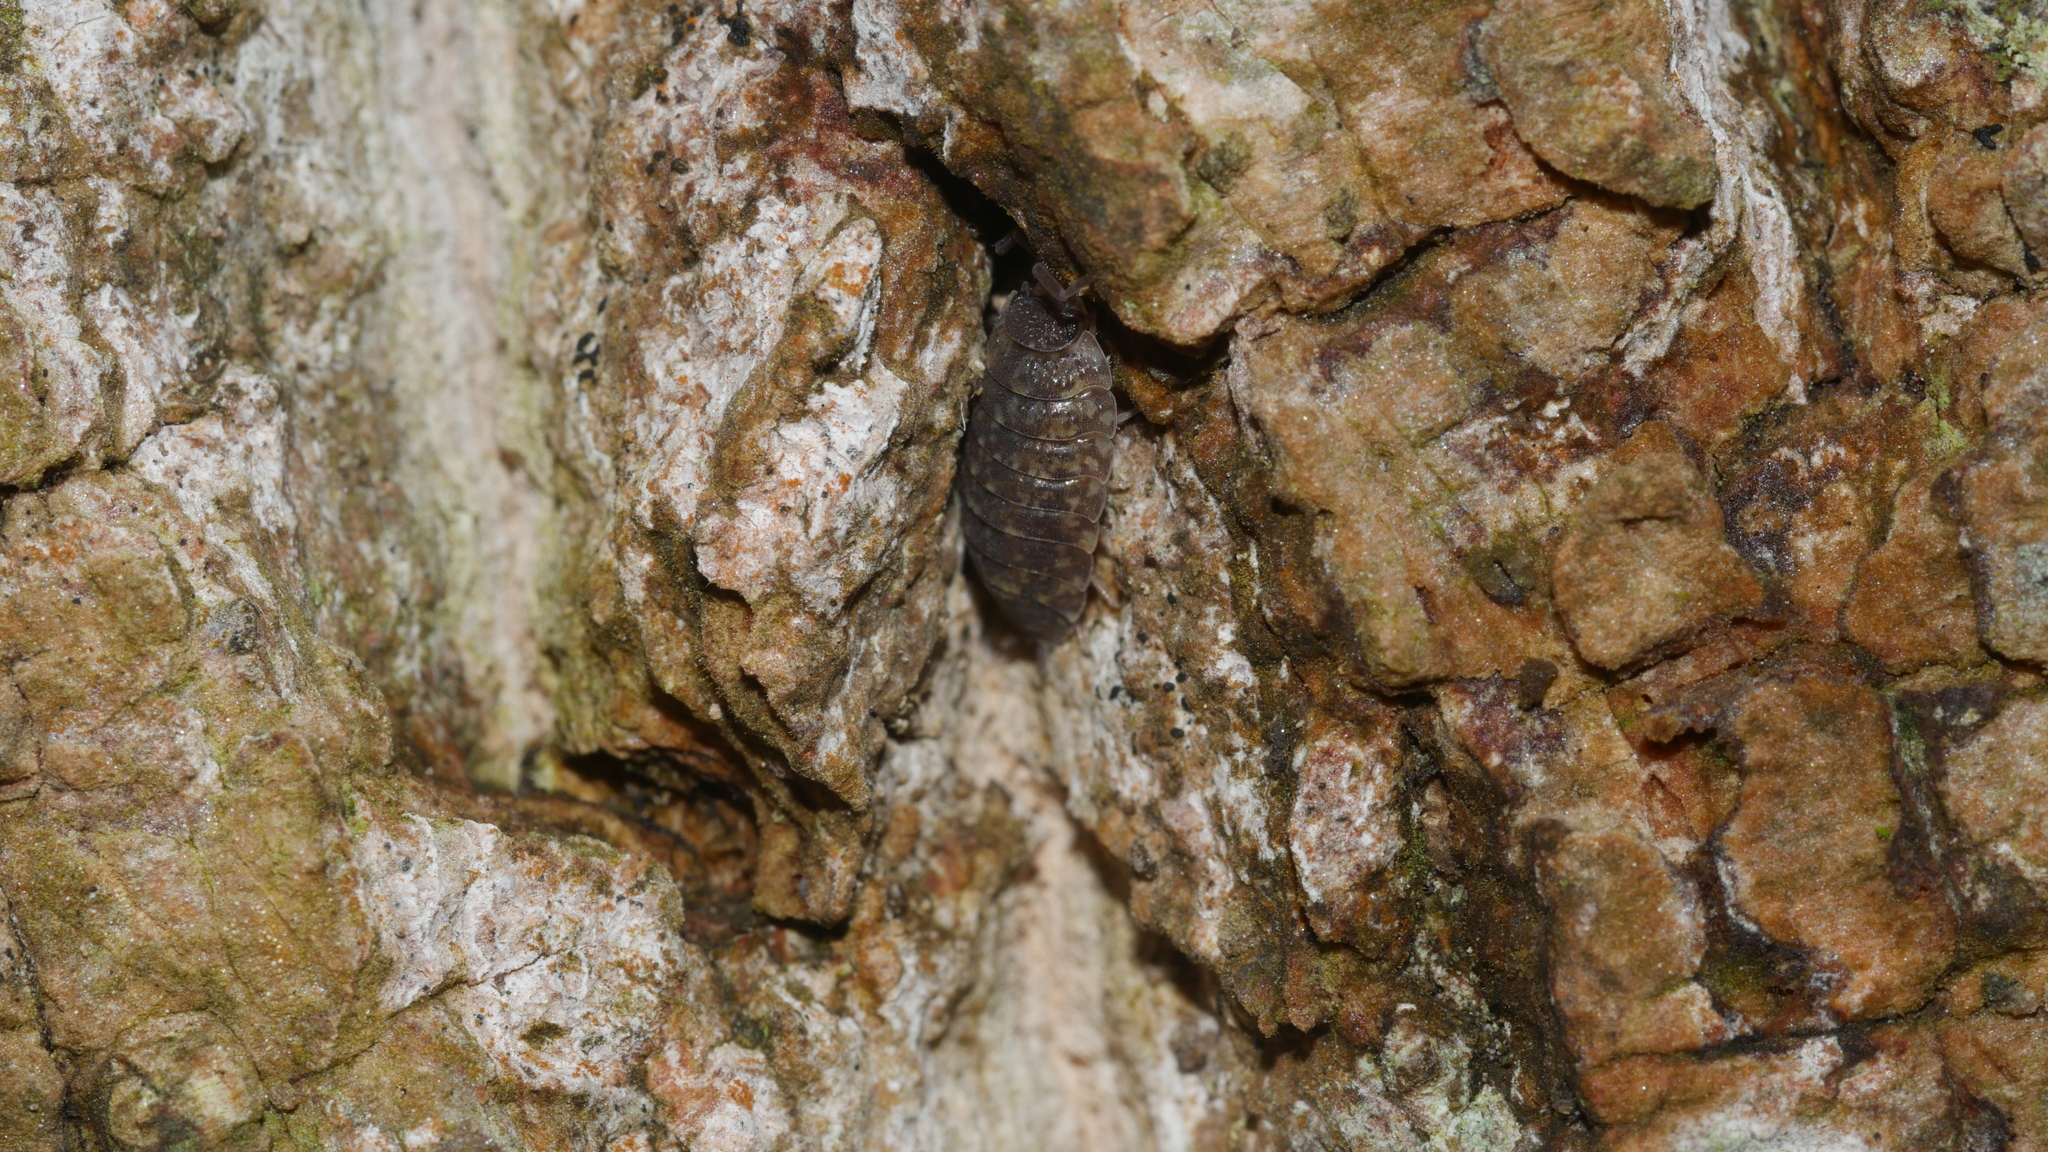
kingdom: Animalia
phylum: Arthropoda
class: Malacostraca
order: Isopoda
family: Porcellionidae
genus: Porcellio
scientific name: Porcellio scaber
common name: Common rough woodlouse
